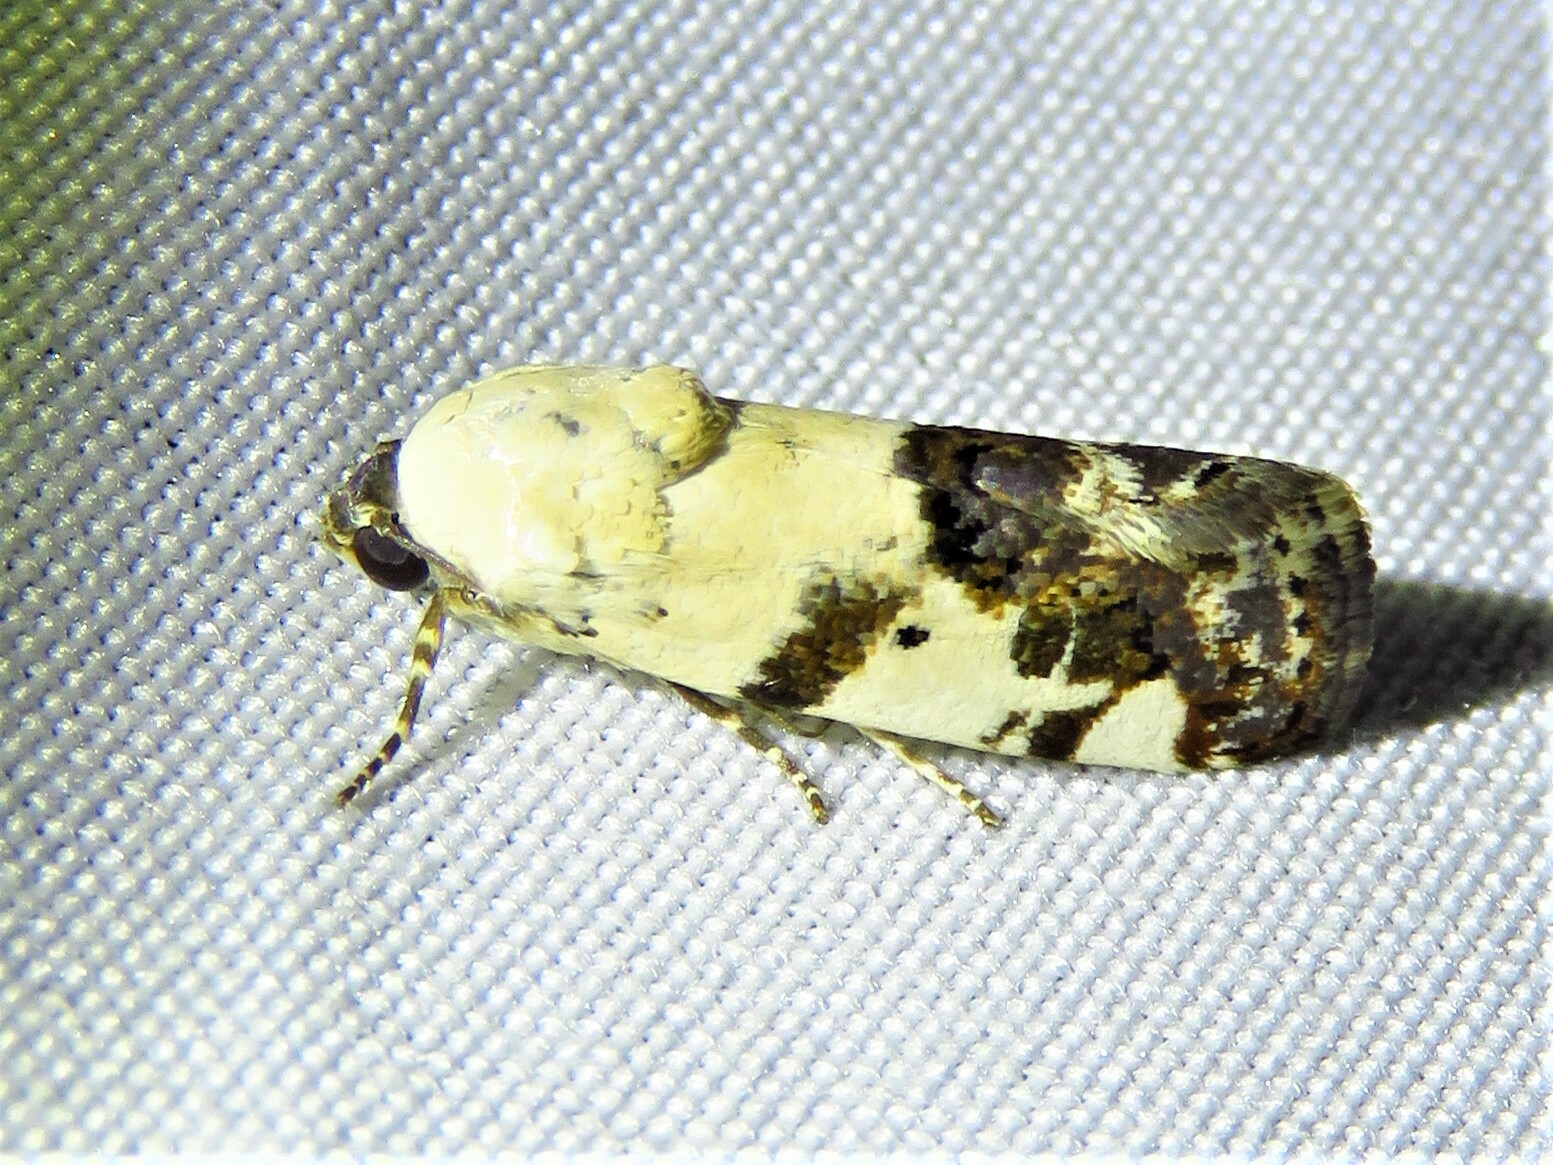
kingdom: Animalia
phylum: Arthropoda
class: Insecta
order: Lepidoptera
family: Noctuidae
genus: Acontia
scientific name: Acontia aprica
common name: Nun
